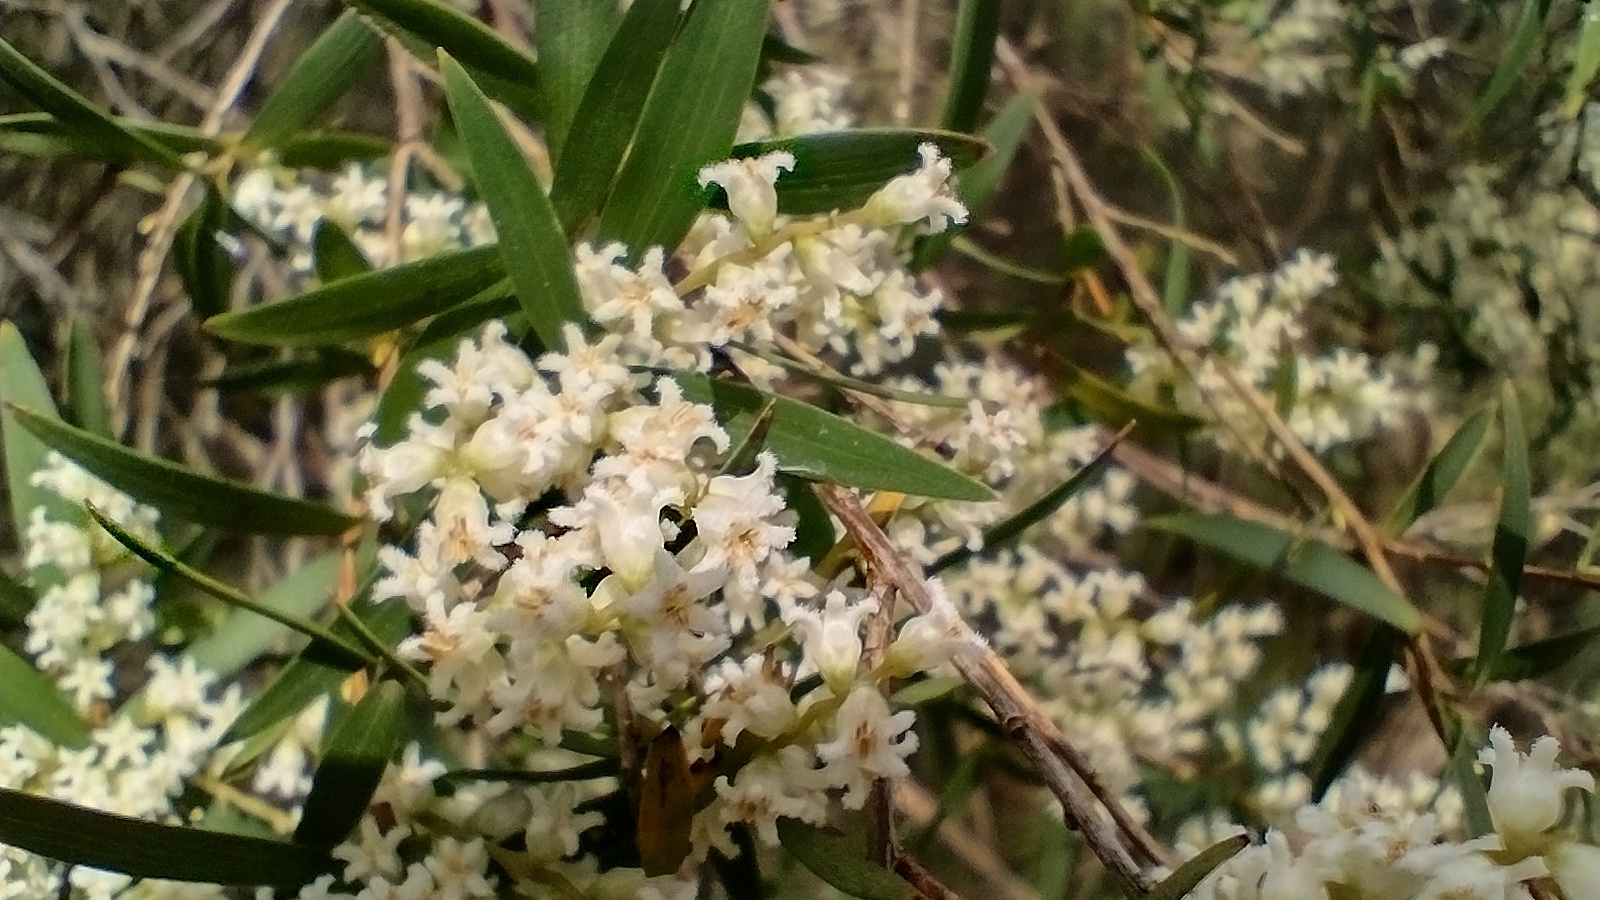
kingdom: Plantae
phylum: Tracheophyta
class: Magnoliopsida
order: Ericales
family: Ericaceae
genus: Leucopogon
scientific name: Leucopogon lanceolatus
